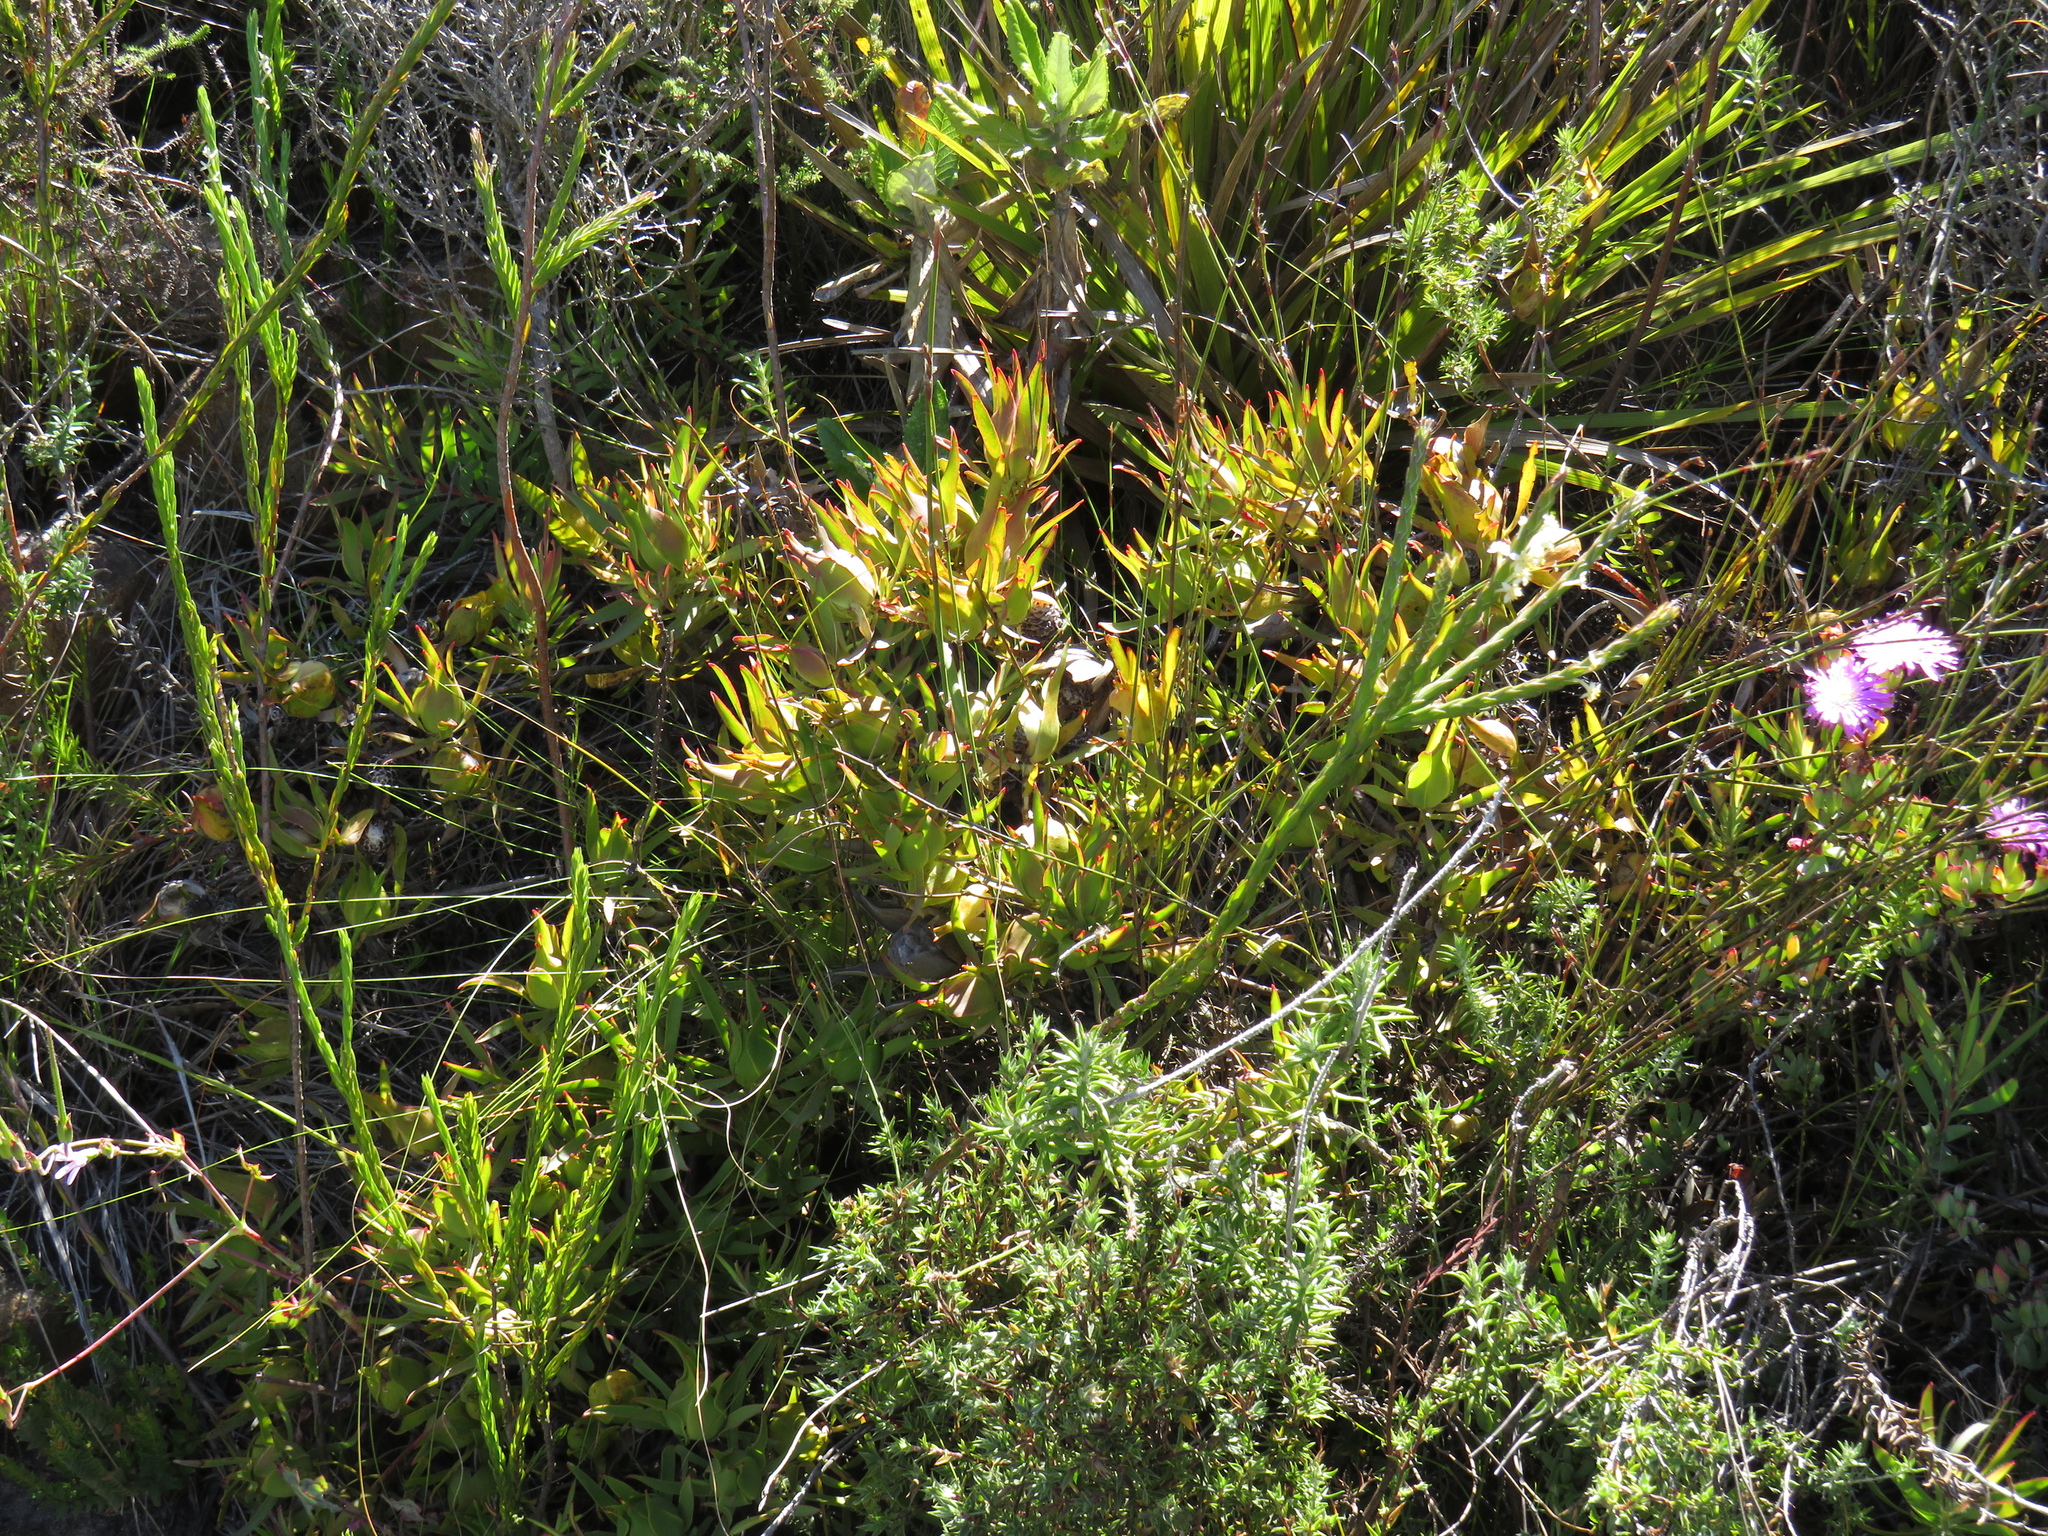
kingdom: Plantae
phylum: Tracheophyta
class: Magnoliopsida
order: Proteales
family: Proteaceae
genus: Leucadendron
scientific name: Leucadendron salignum
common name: Common sunshine conebush
